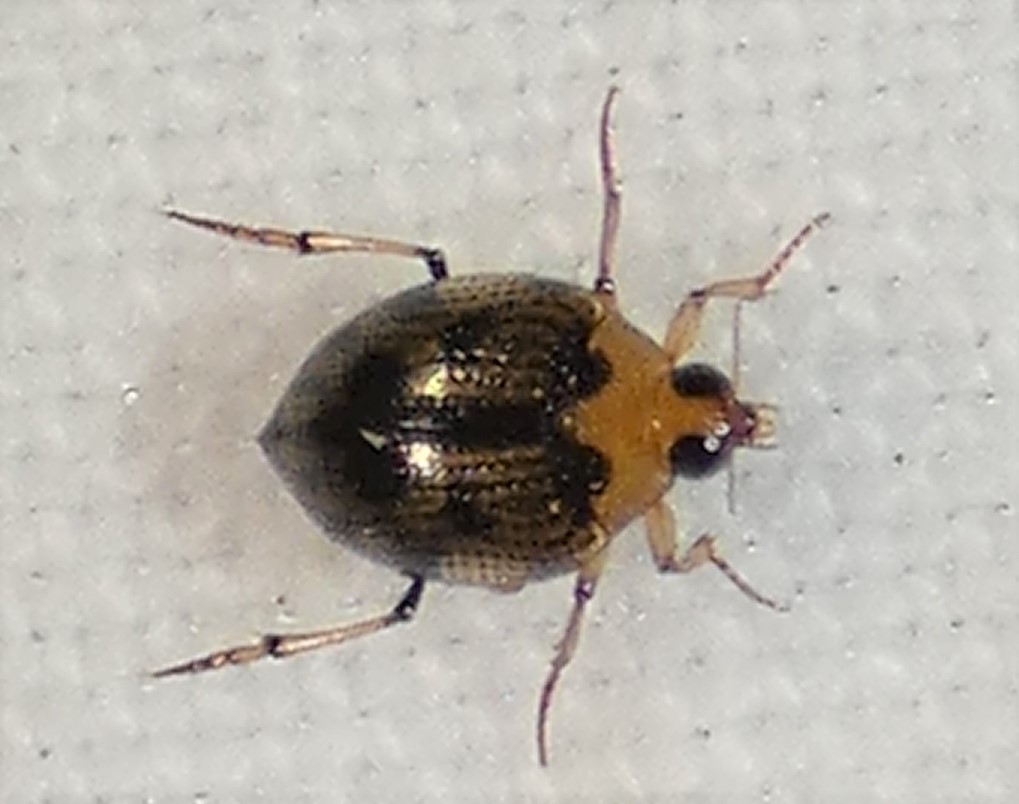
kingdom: Animalia
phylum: Arthropoda
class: Insecta
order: Coleoptera
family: Haliplidae
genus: Peltodytes
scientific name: Peltodytes
